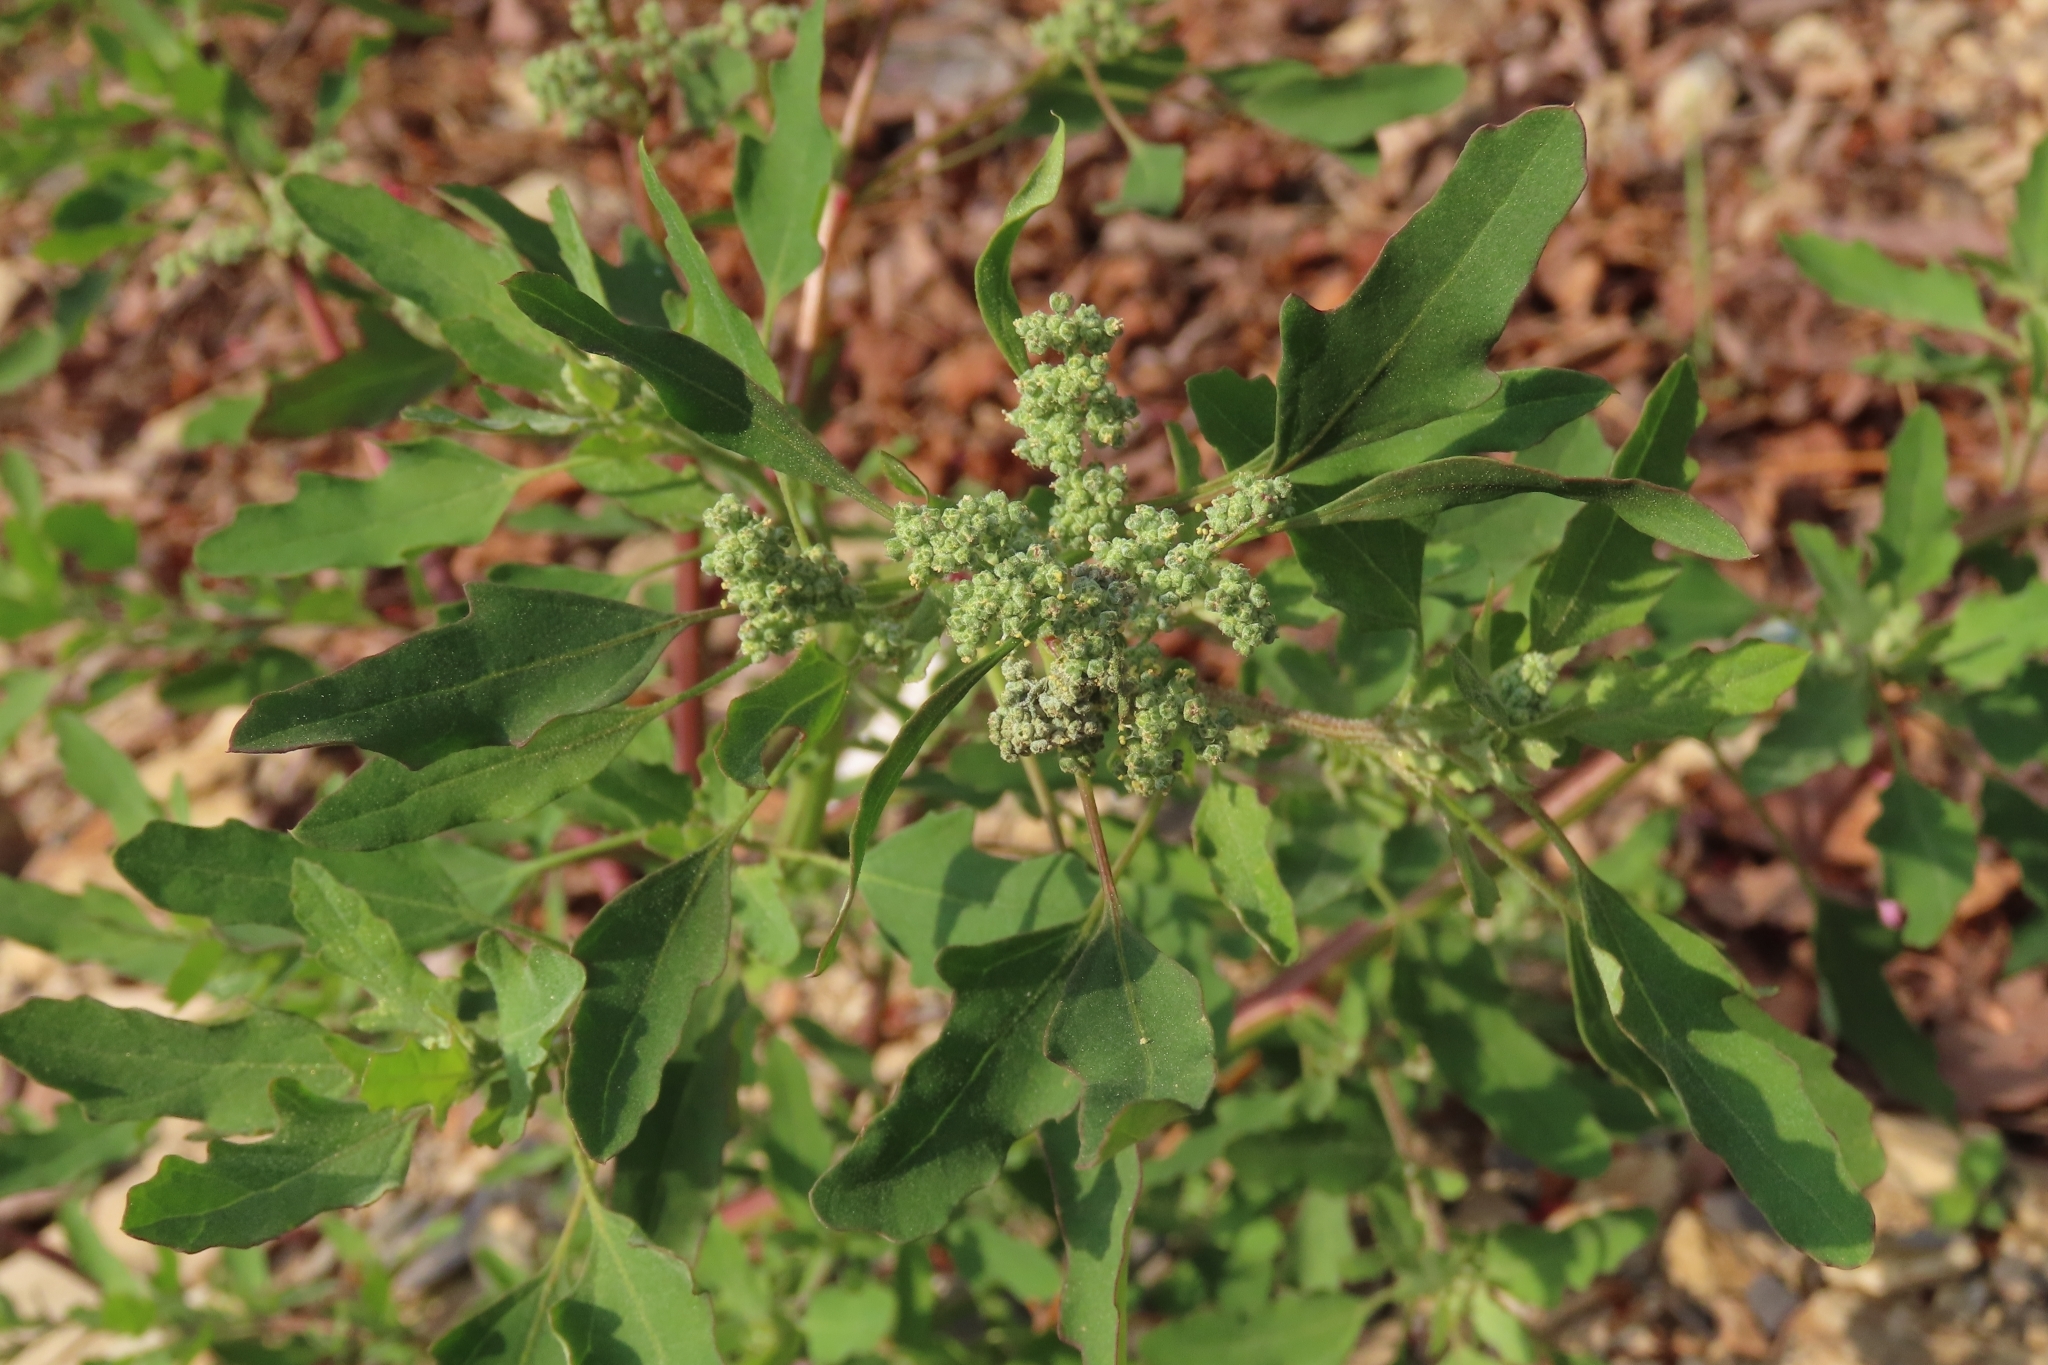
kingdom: Plantae
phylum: Tracheophyta
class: Magnoliopsida
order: Caryophyllales
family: Amaranthaceae
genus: Chenopodium
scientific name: Chenopodium ficifolium
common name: Fig-leaved goosefoot
